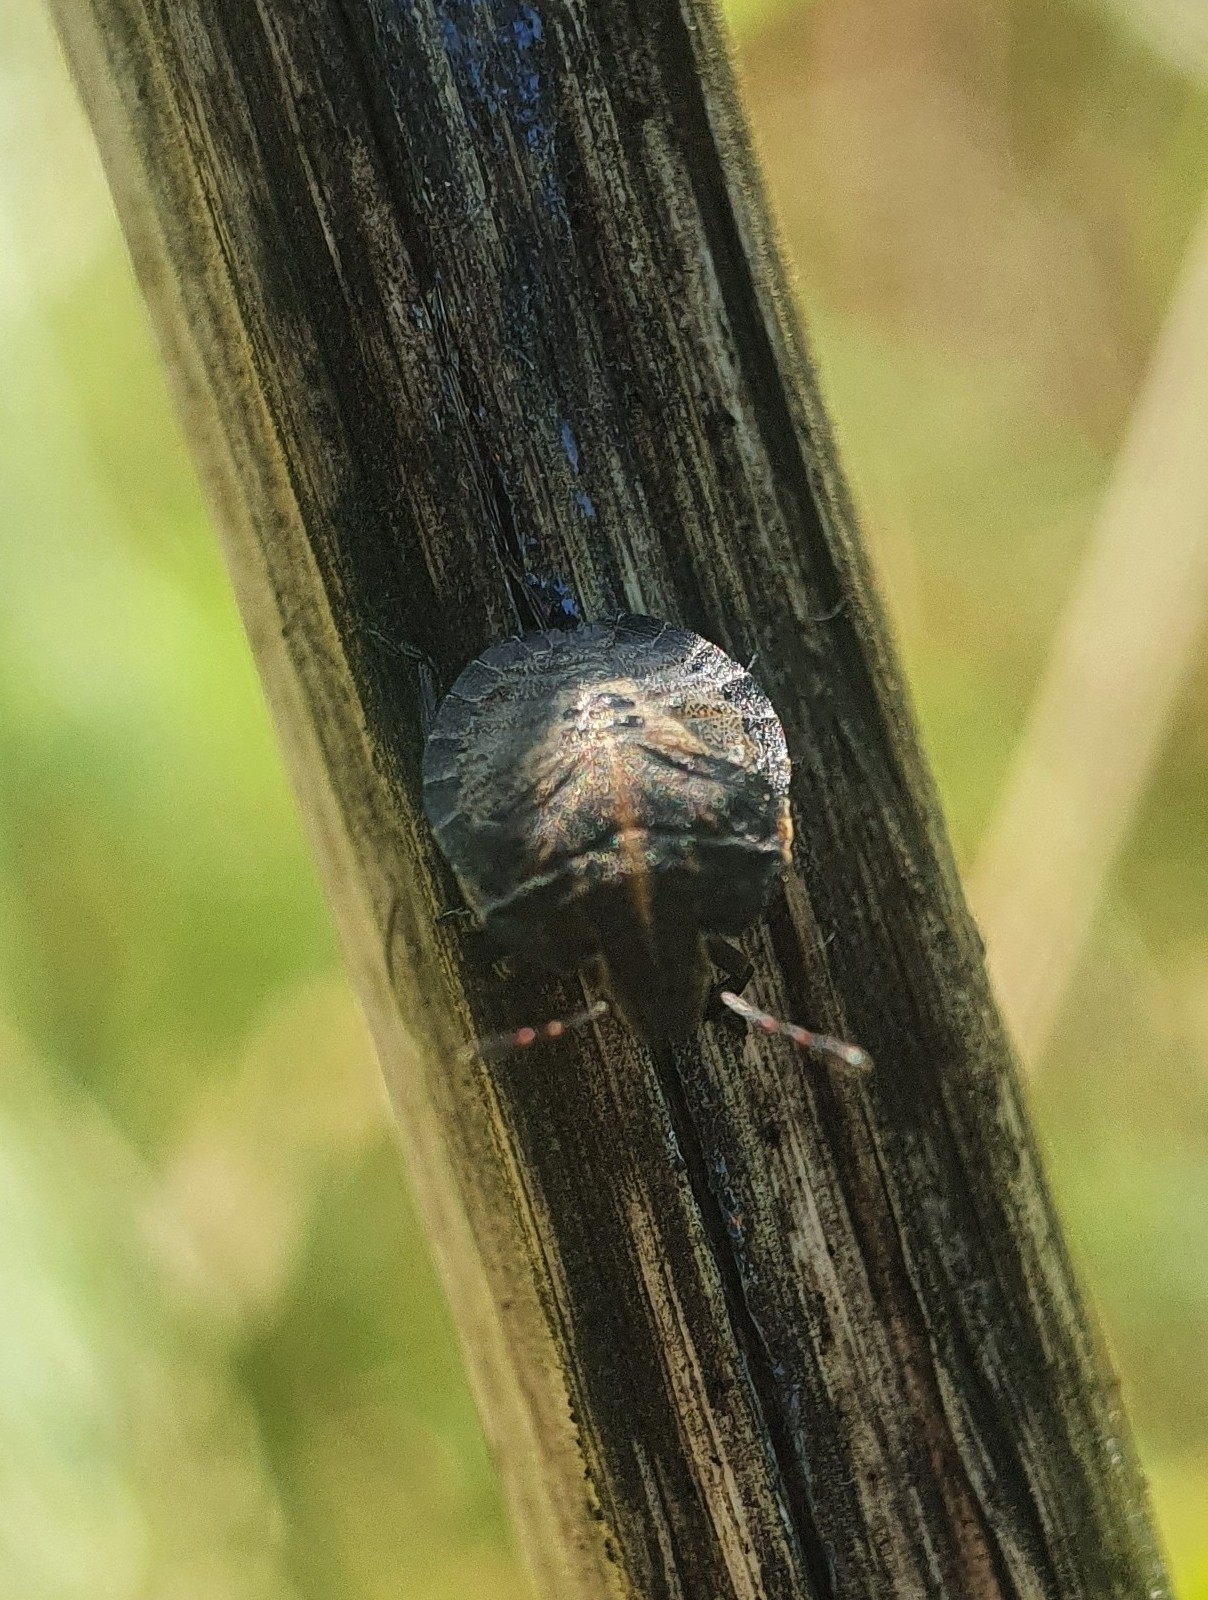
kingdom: Animalia
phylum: Arthropoda
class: Insecta
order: Hemiptera
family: Pentatomidae
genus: Graphosoma
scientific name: Graphosoma italicum
